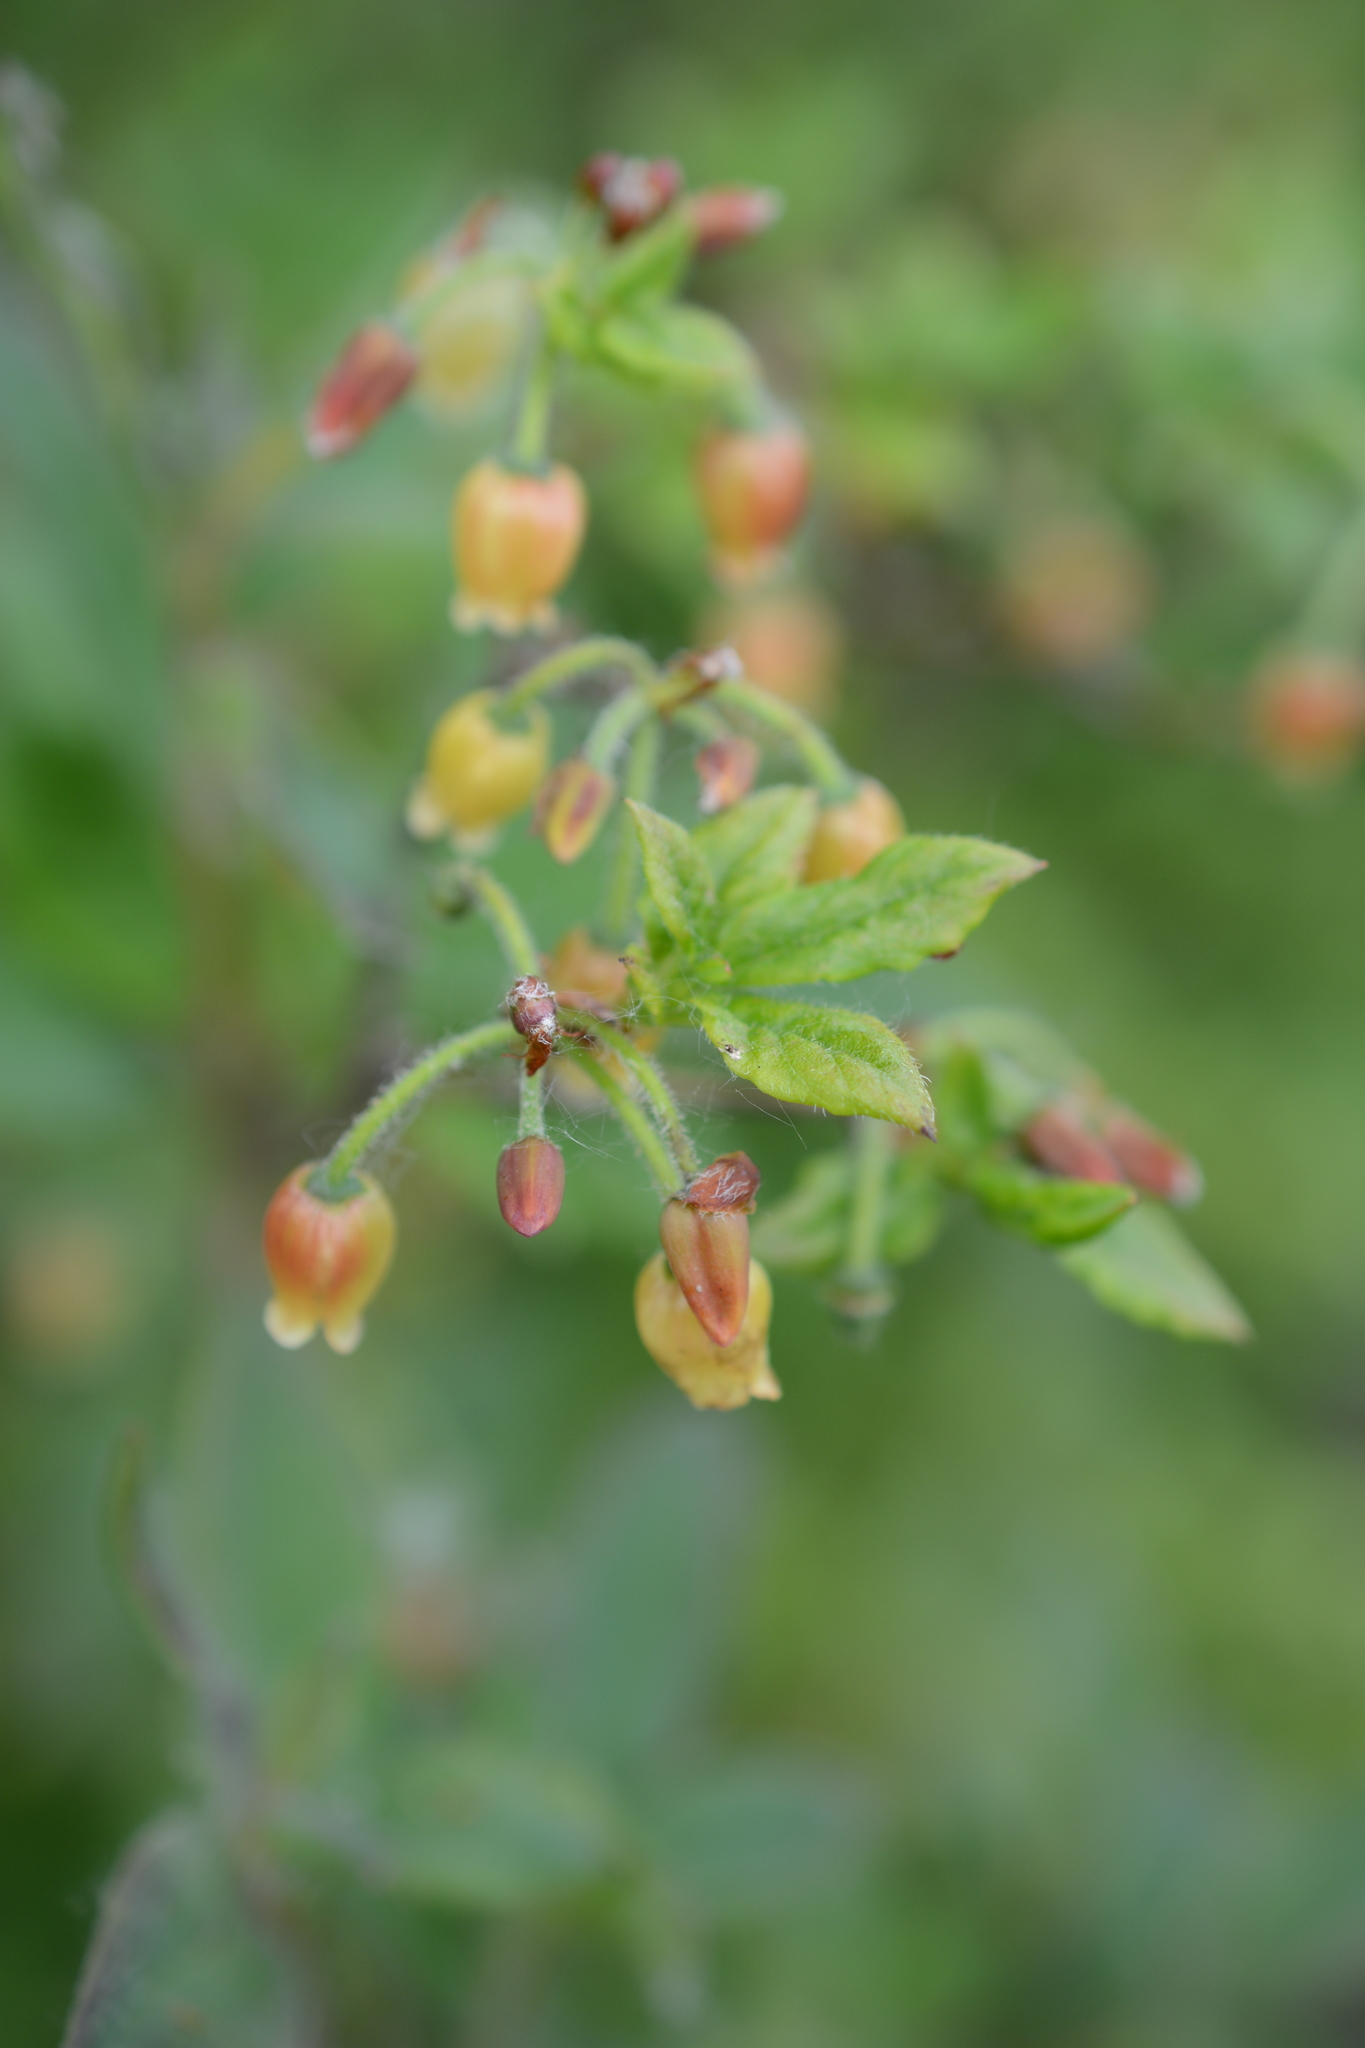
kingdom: Plantae
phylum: Tracheophyta
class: Magnoliopsida
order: Ericales
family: Ericaceae
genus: Rhododendron
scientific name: Rhododendron menziesii
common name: Pacific menziesia
